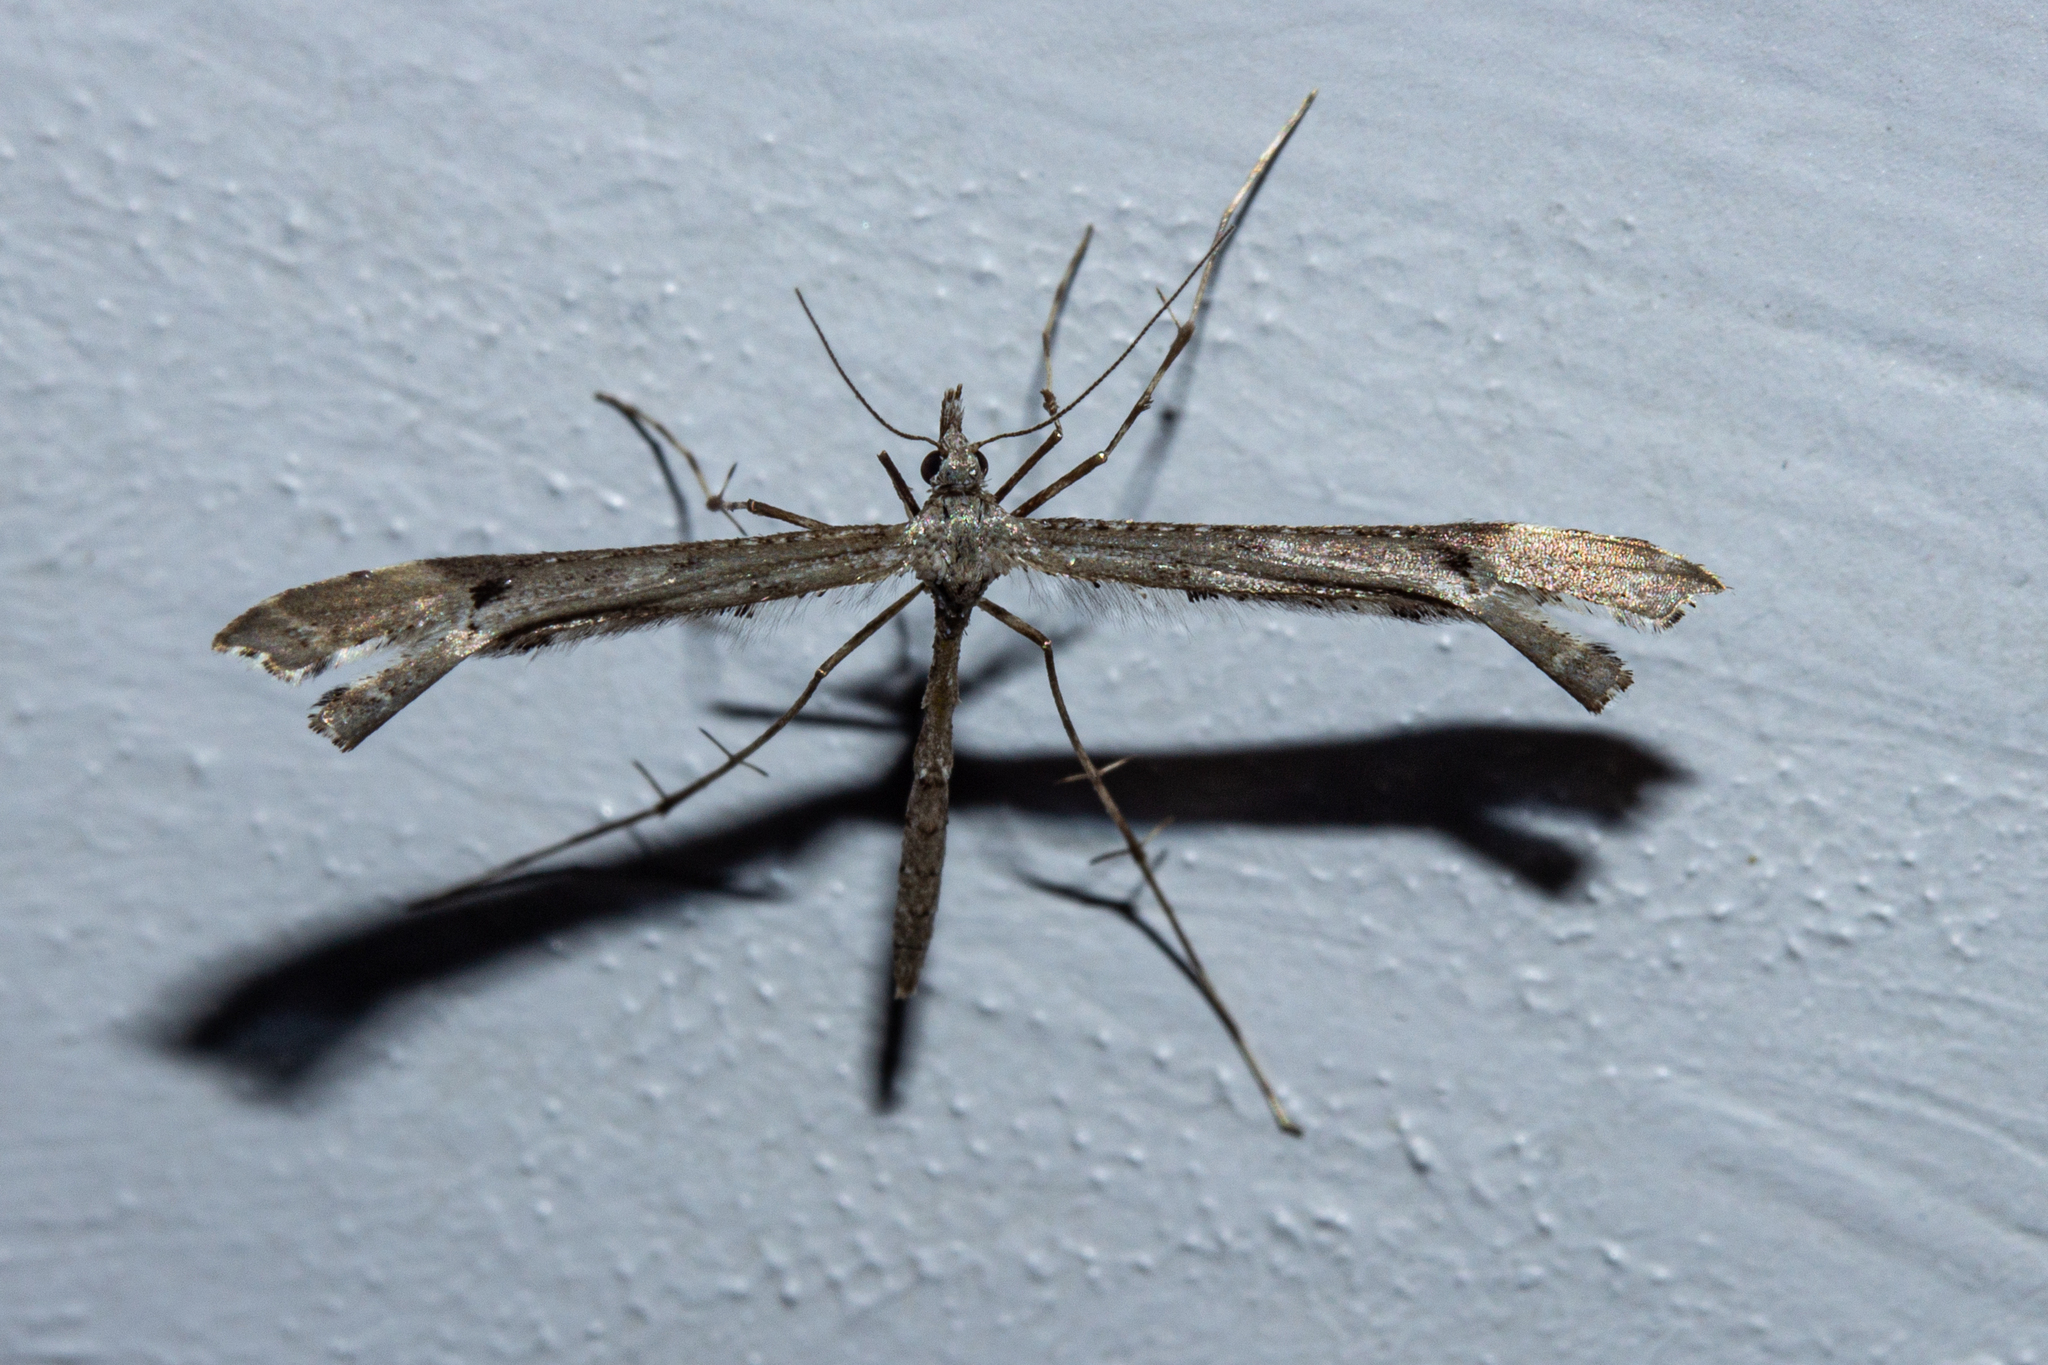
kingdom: Animalia
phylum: Arthropoda
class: Insecta
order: Lepidoptera
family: Pterophoridae
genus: Amblyptilia
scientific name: Amblyptilia repletalis
